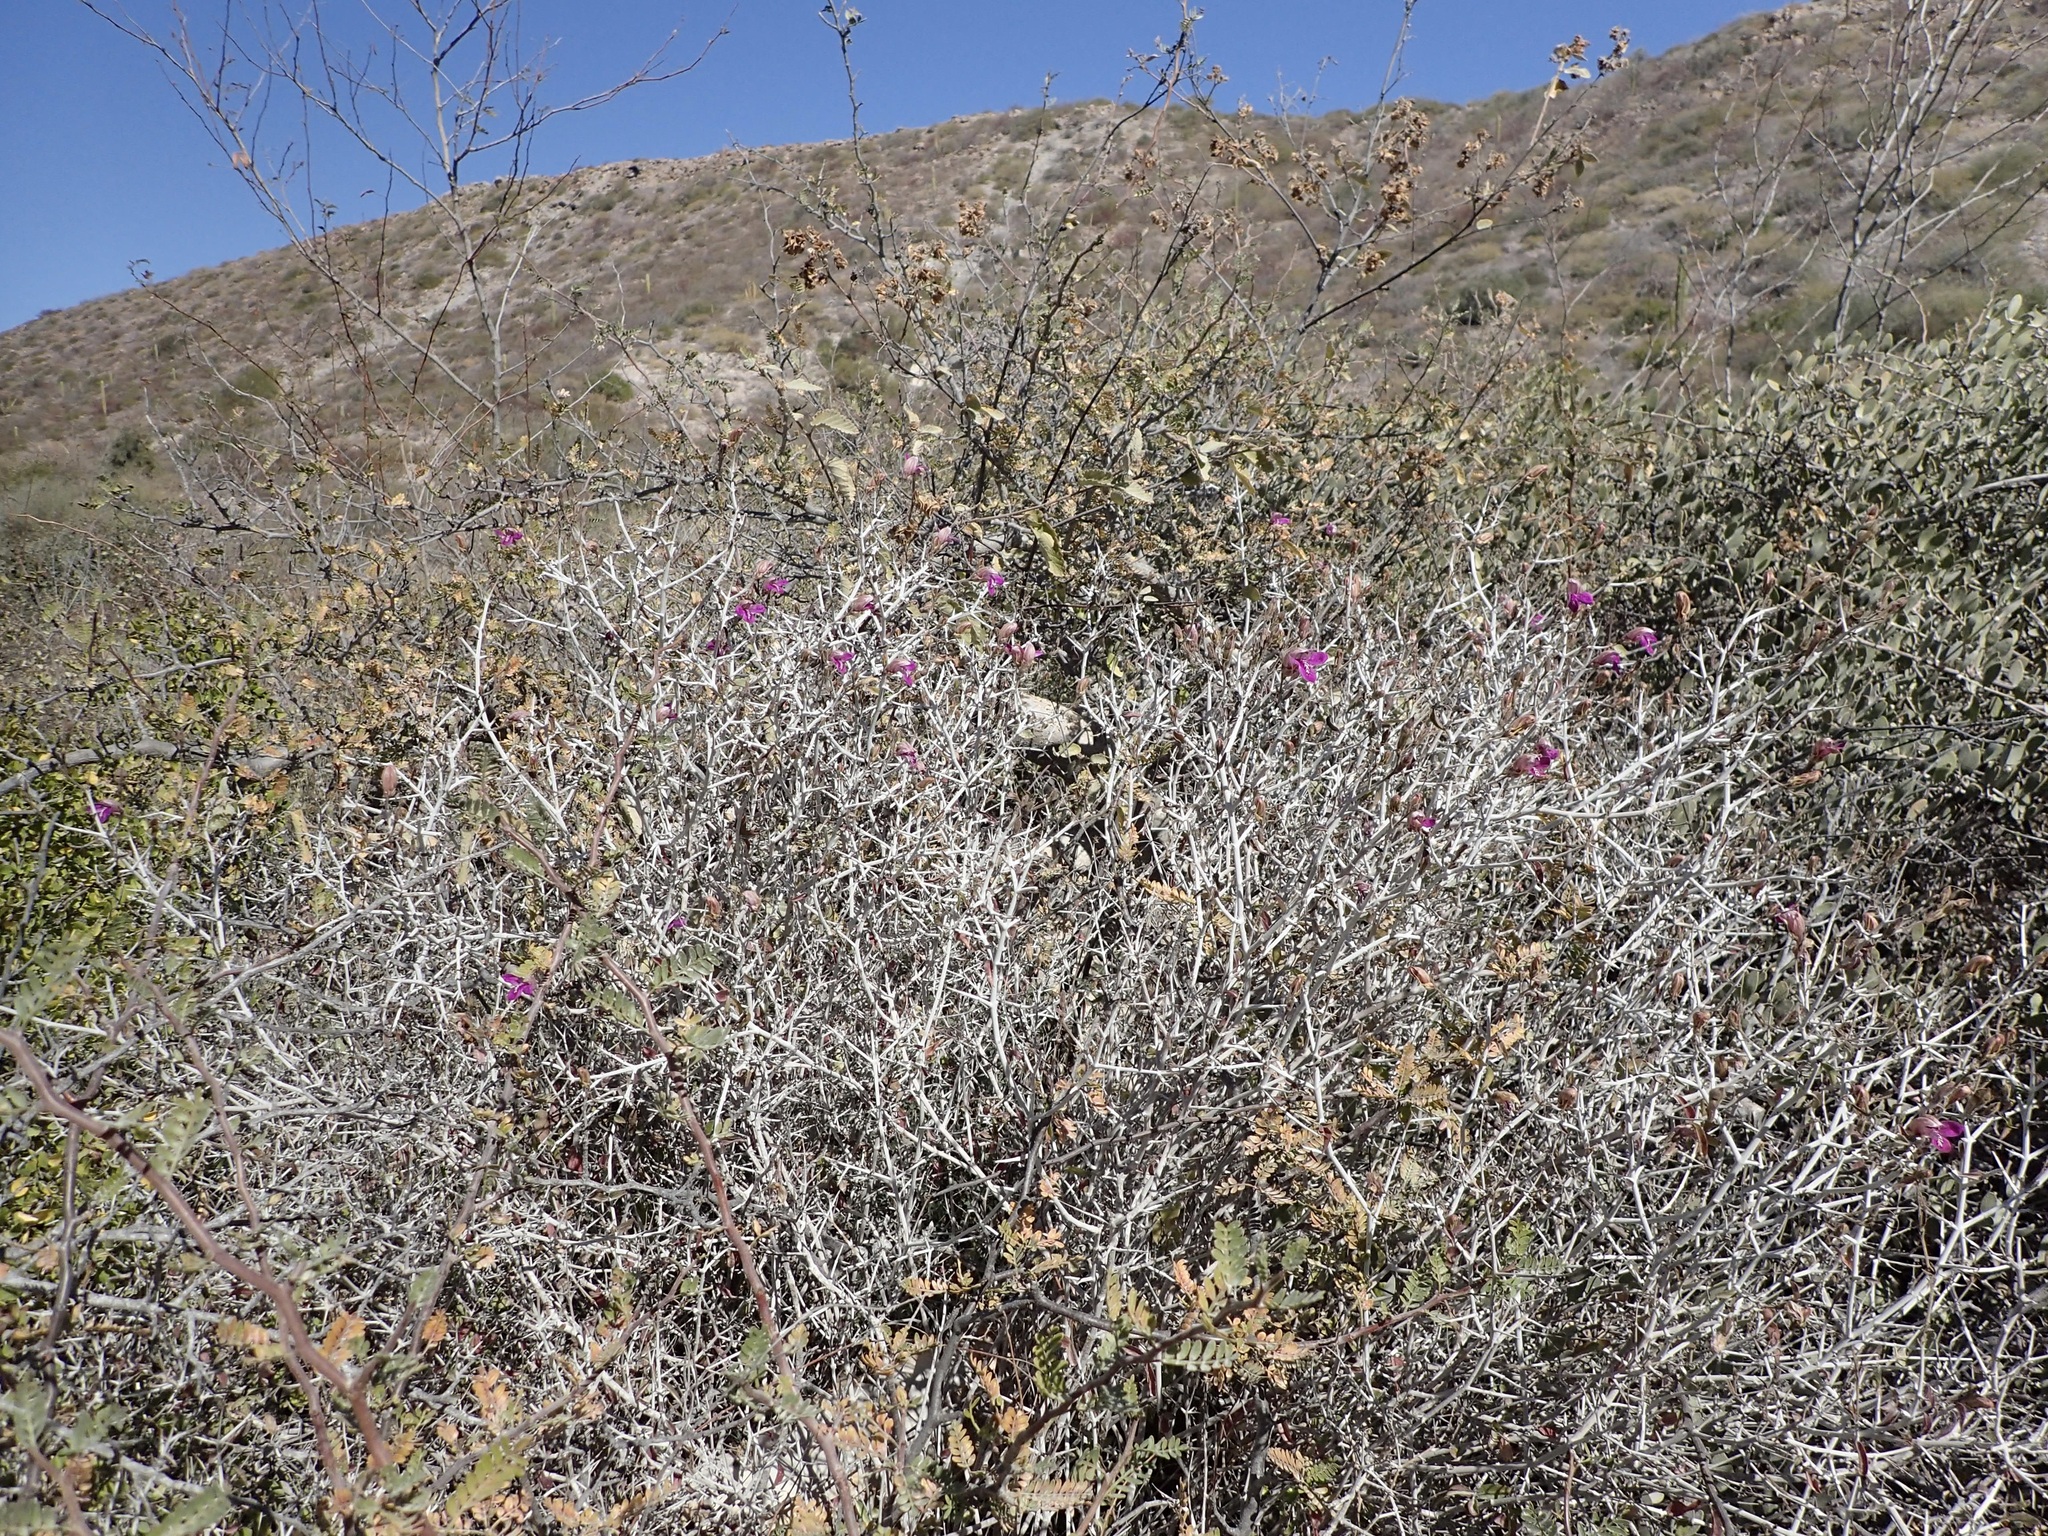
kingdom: Plantae
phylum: Tracheophyta
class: Magnoliopsida
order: Lamiales
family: Acanthaceae
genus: Justicia
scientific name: Justicia insolita
